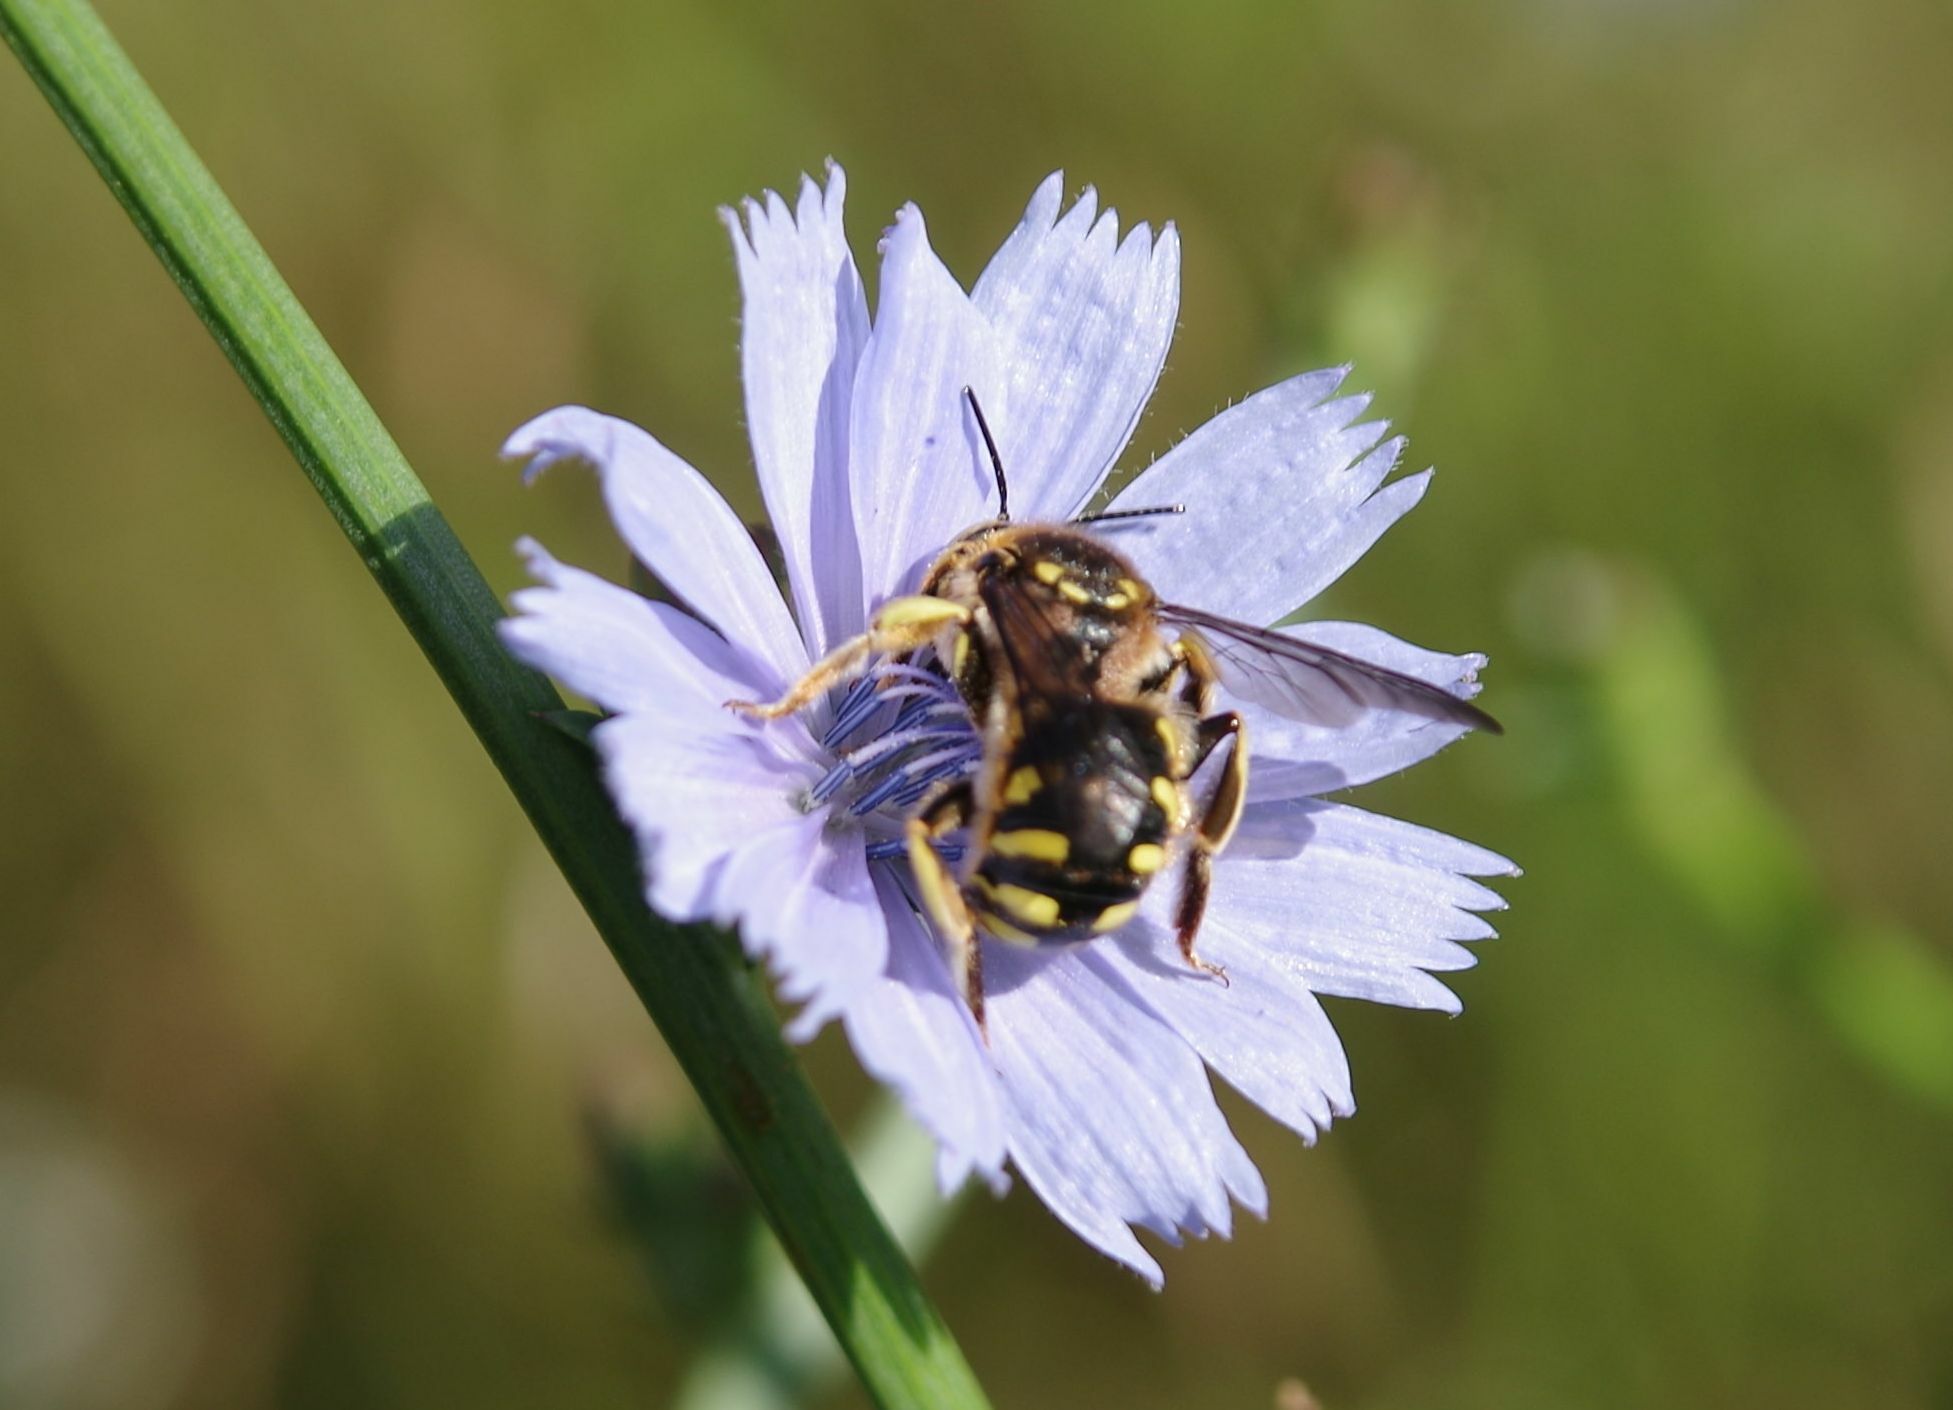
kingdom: Animalia
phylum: Arthropoda
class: Insecta
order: Hymenoptera
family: Megachilidae
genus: Anthidium
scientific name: Anthidium florentinum
